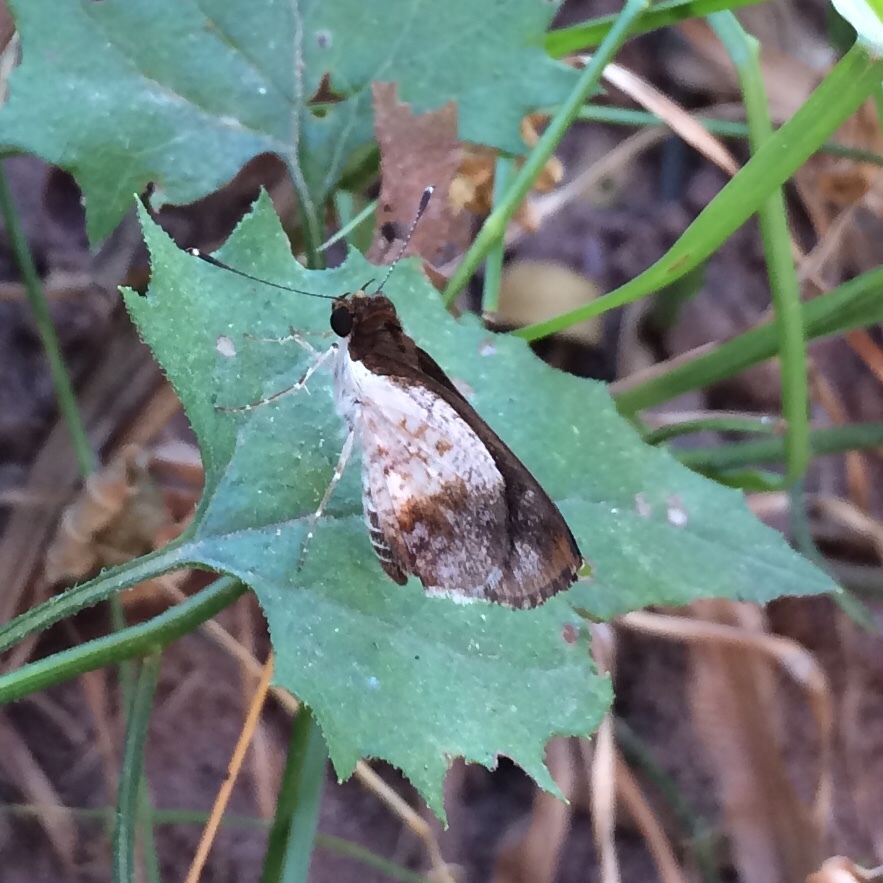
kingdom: Animalia
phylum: Arthropoda
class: Insecta
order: Lepidoptera
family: Hesperiidae
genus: Acleros
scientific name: Acleros mackenii
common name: Shade dart
